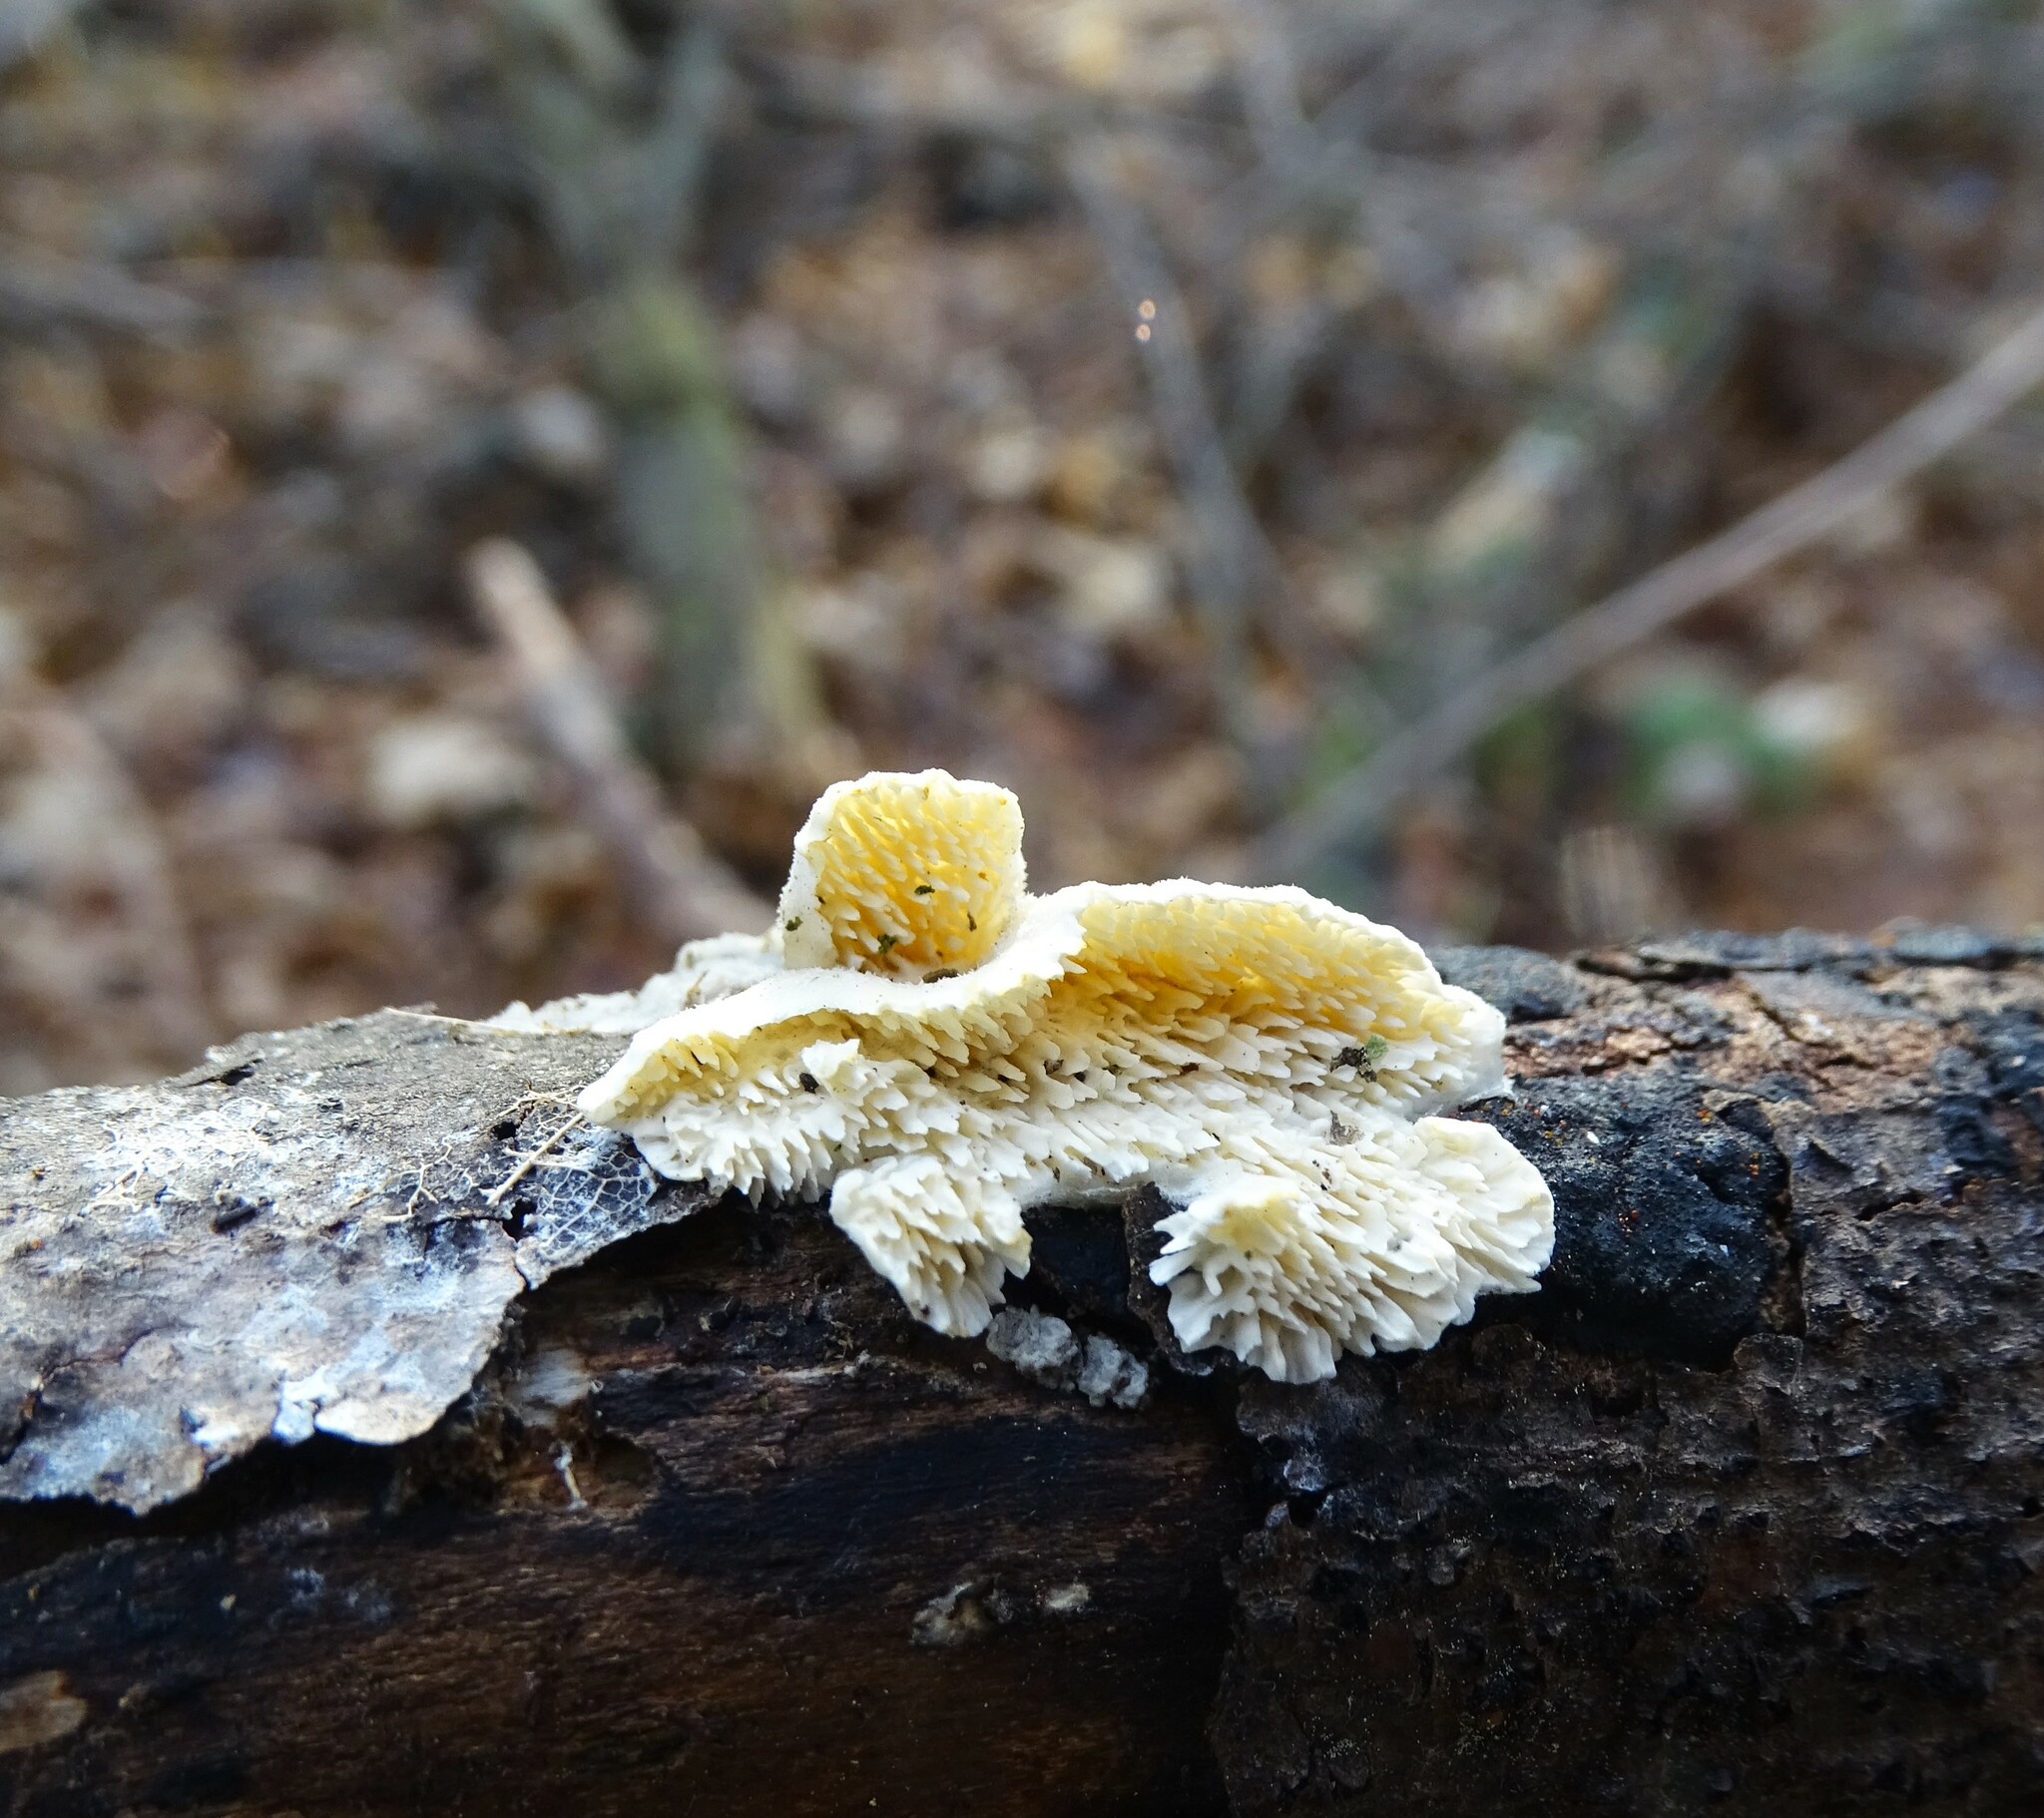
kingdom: Fungi
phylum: Basidiomycota
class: Agaricomycetes
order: Hymenochaetales
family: Schizoporaceae
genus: Xylodon
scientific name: Xylodon radula
